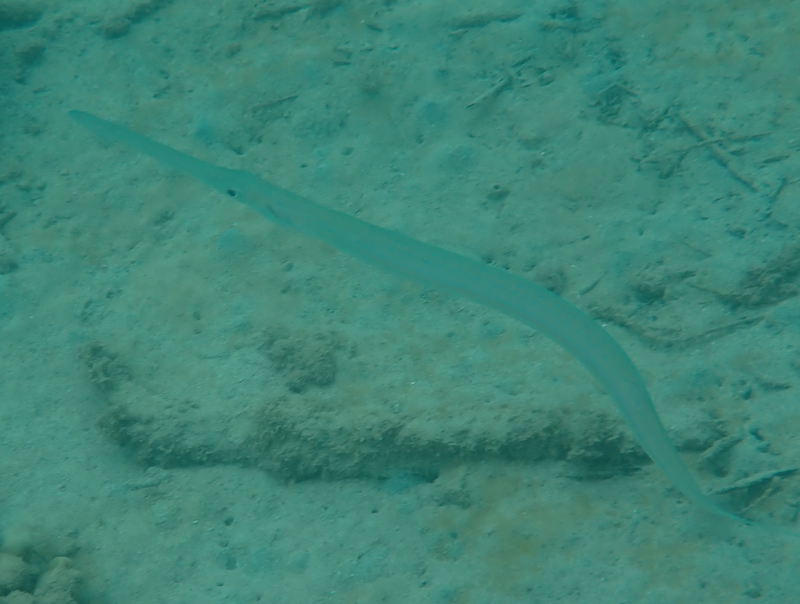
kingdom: Animalia
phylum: Chordata
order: Syngnathiformes
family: Fistulariidae
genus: Fistularia
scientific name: Fistularia commersonii
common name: Bluespotted cornetfish
